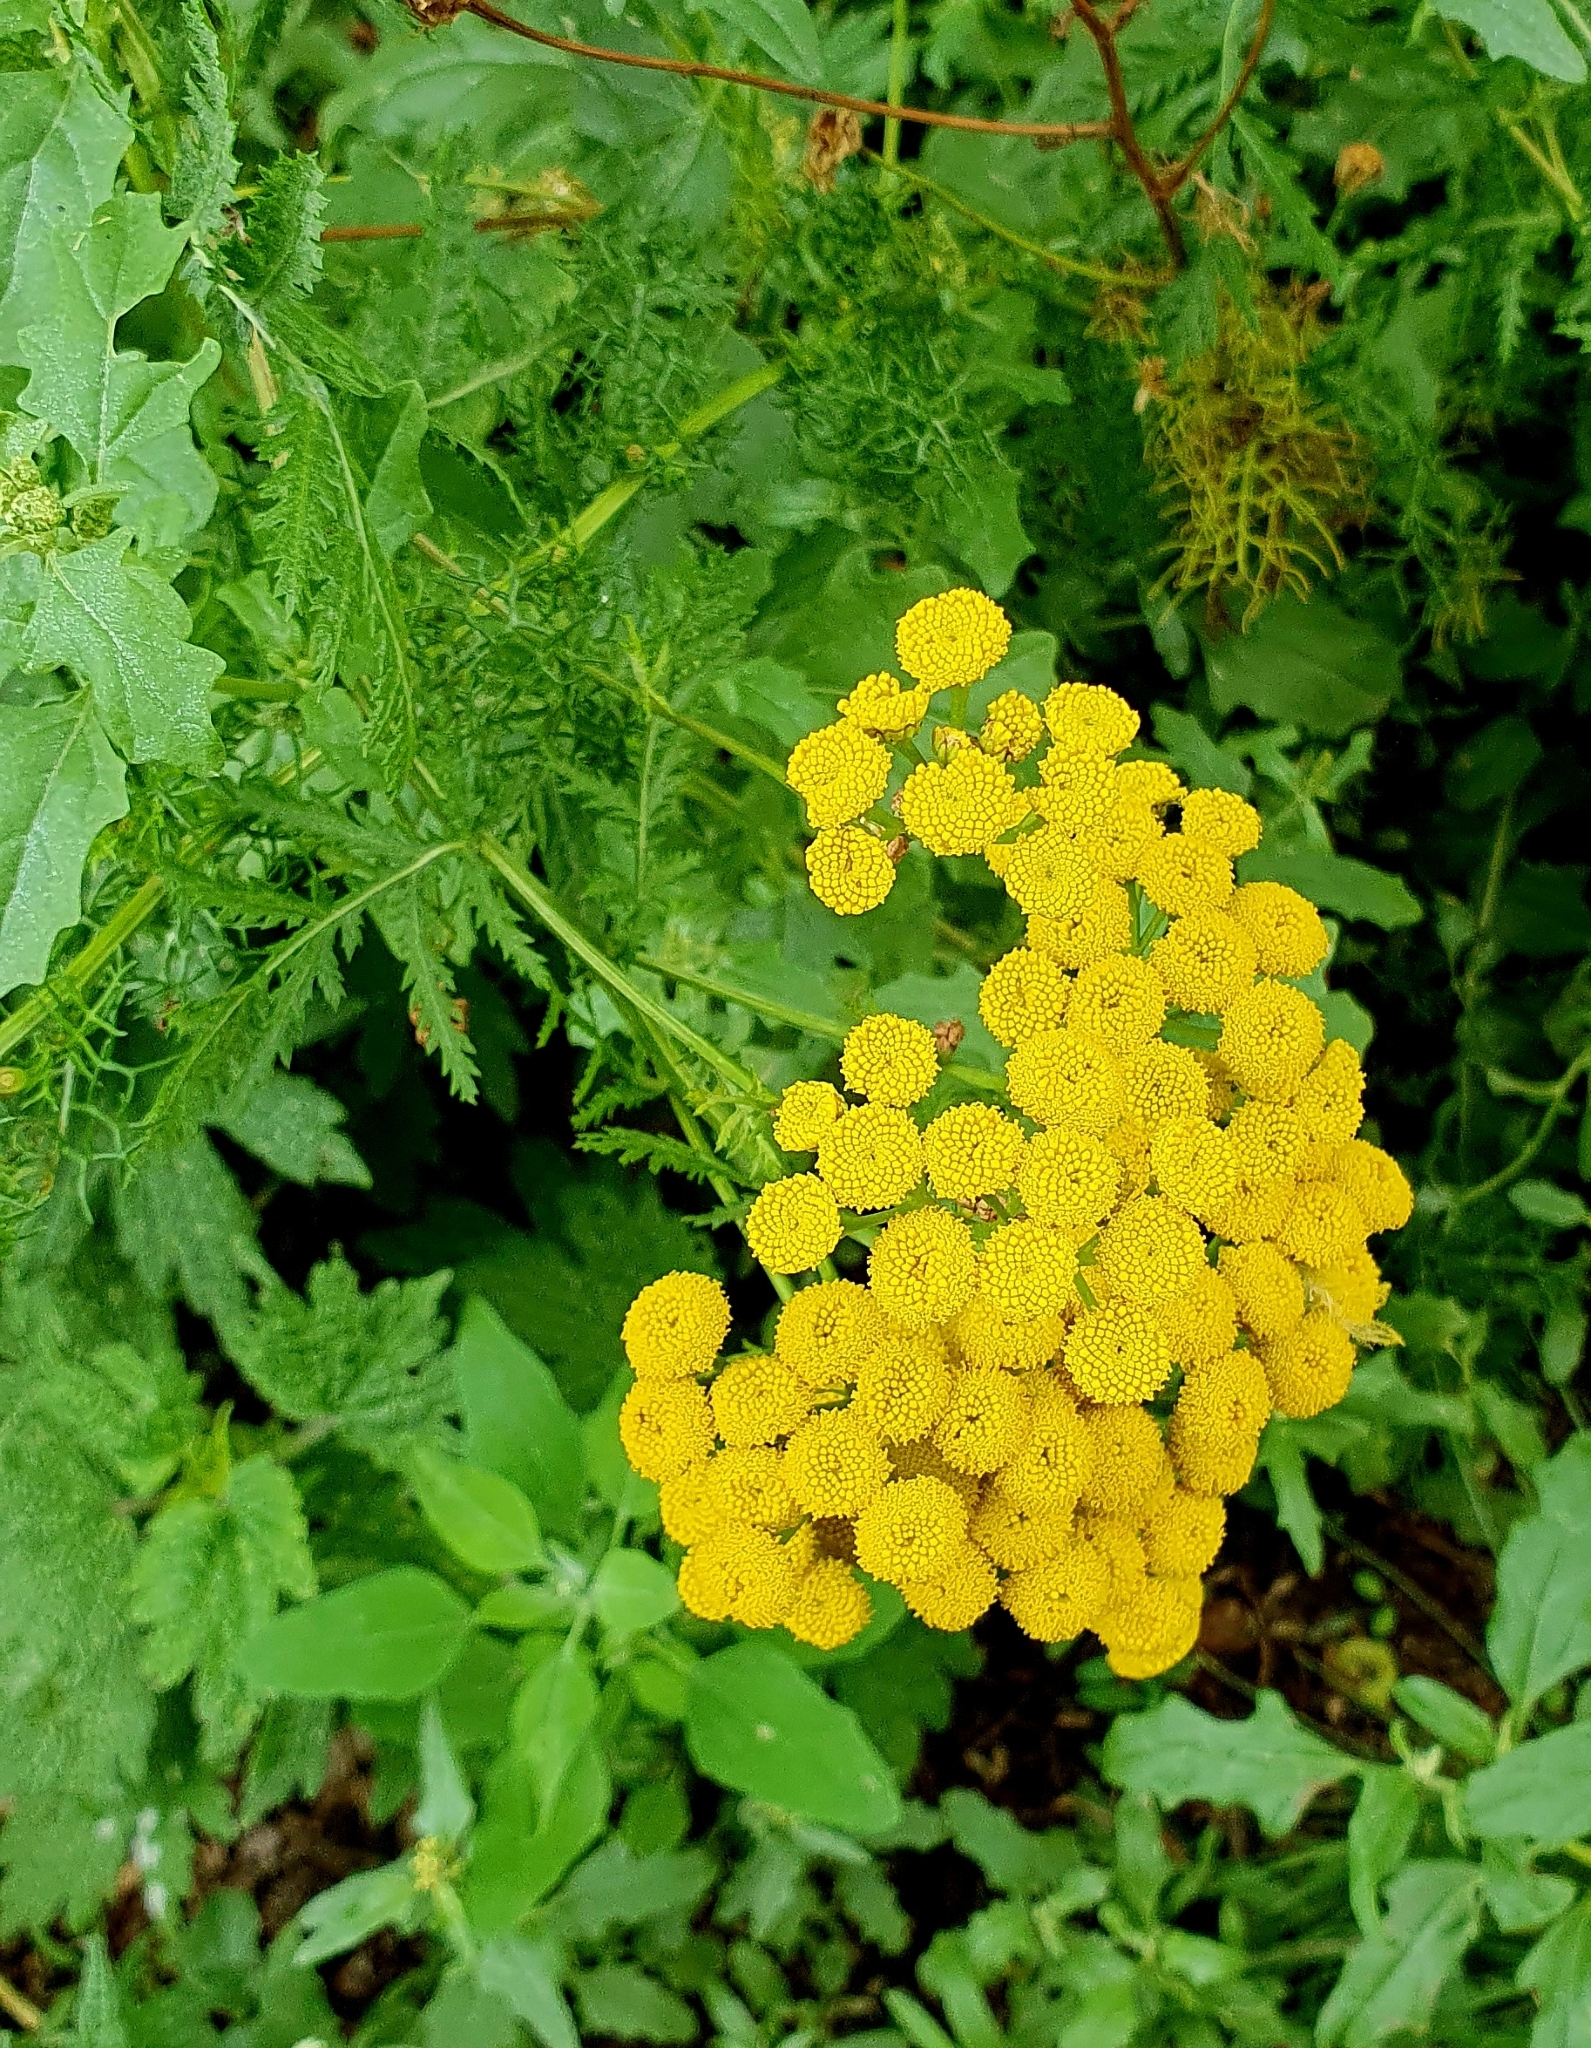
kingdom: Plantae
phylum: Tracheophyta
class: Magnoliopsida
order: Asterales
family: Asteraceae
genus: Tanacetum
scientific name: Tanacetum vulgare
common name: Common tansy
